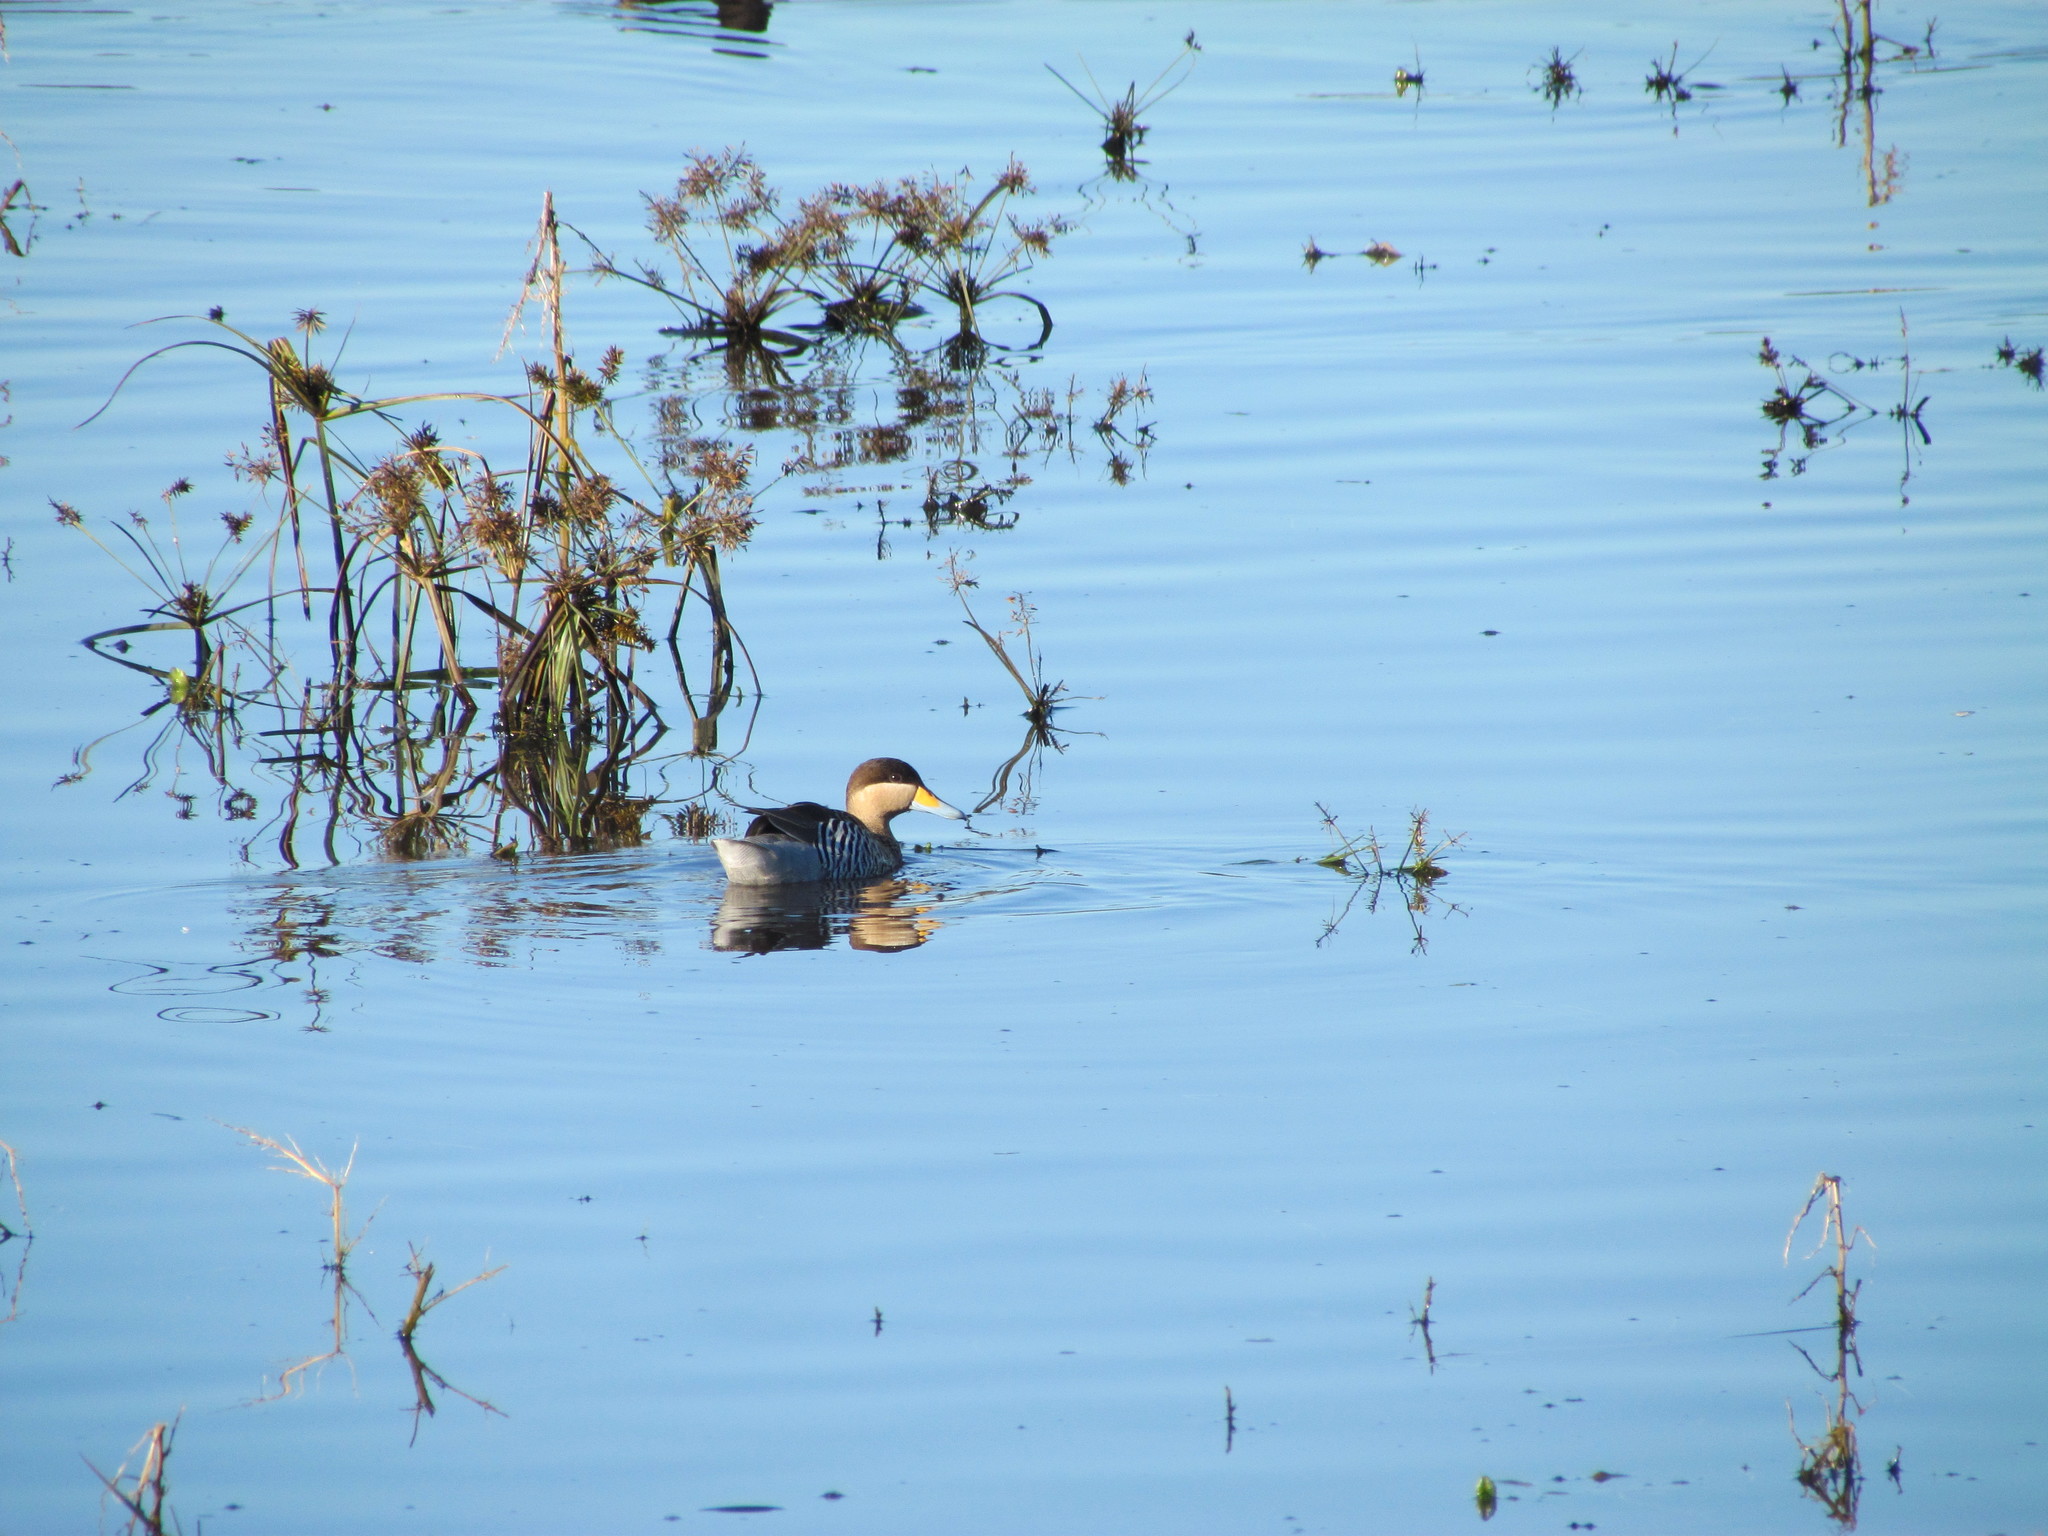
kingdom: Animalia
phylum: Chordata
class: Aves
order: Anseriformes
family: Anatidae
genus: Spatula
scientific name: Spatula versicolor
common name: Silver teal
